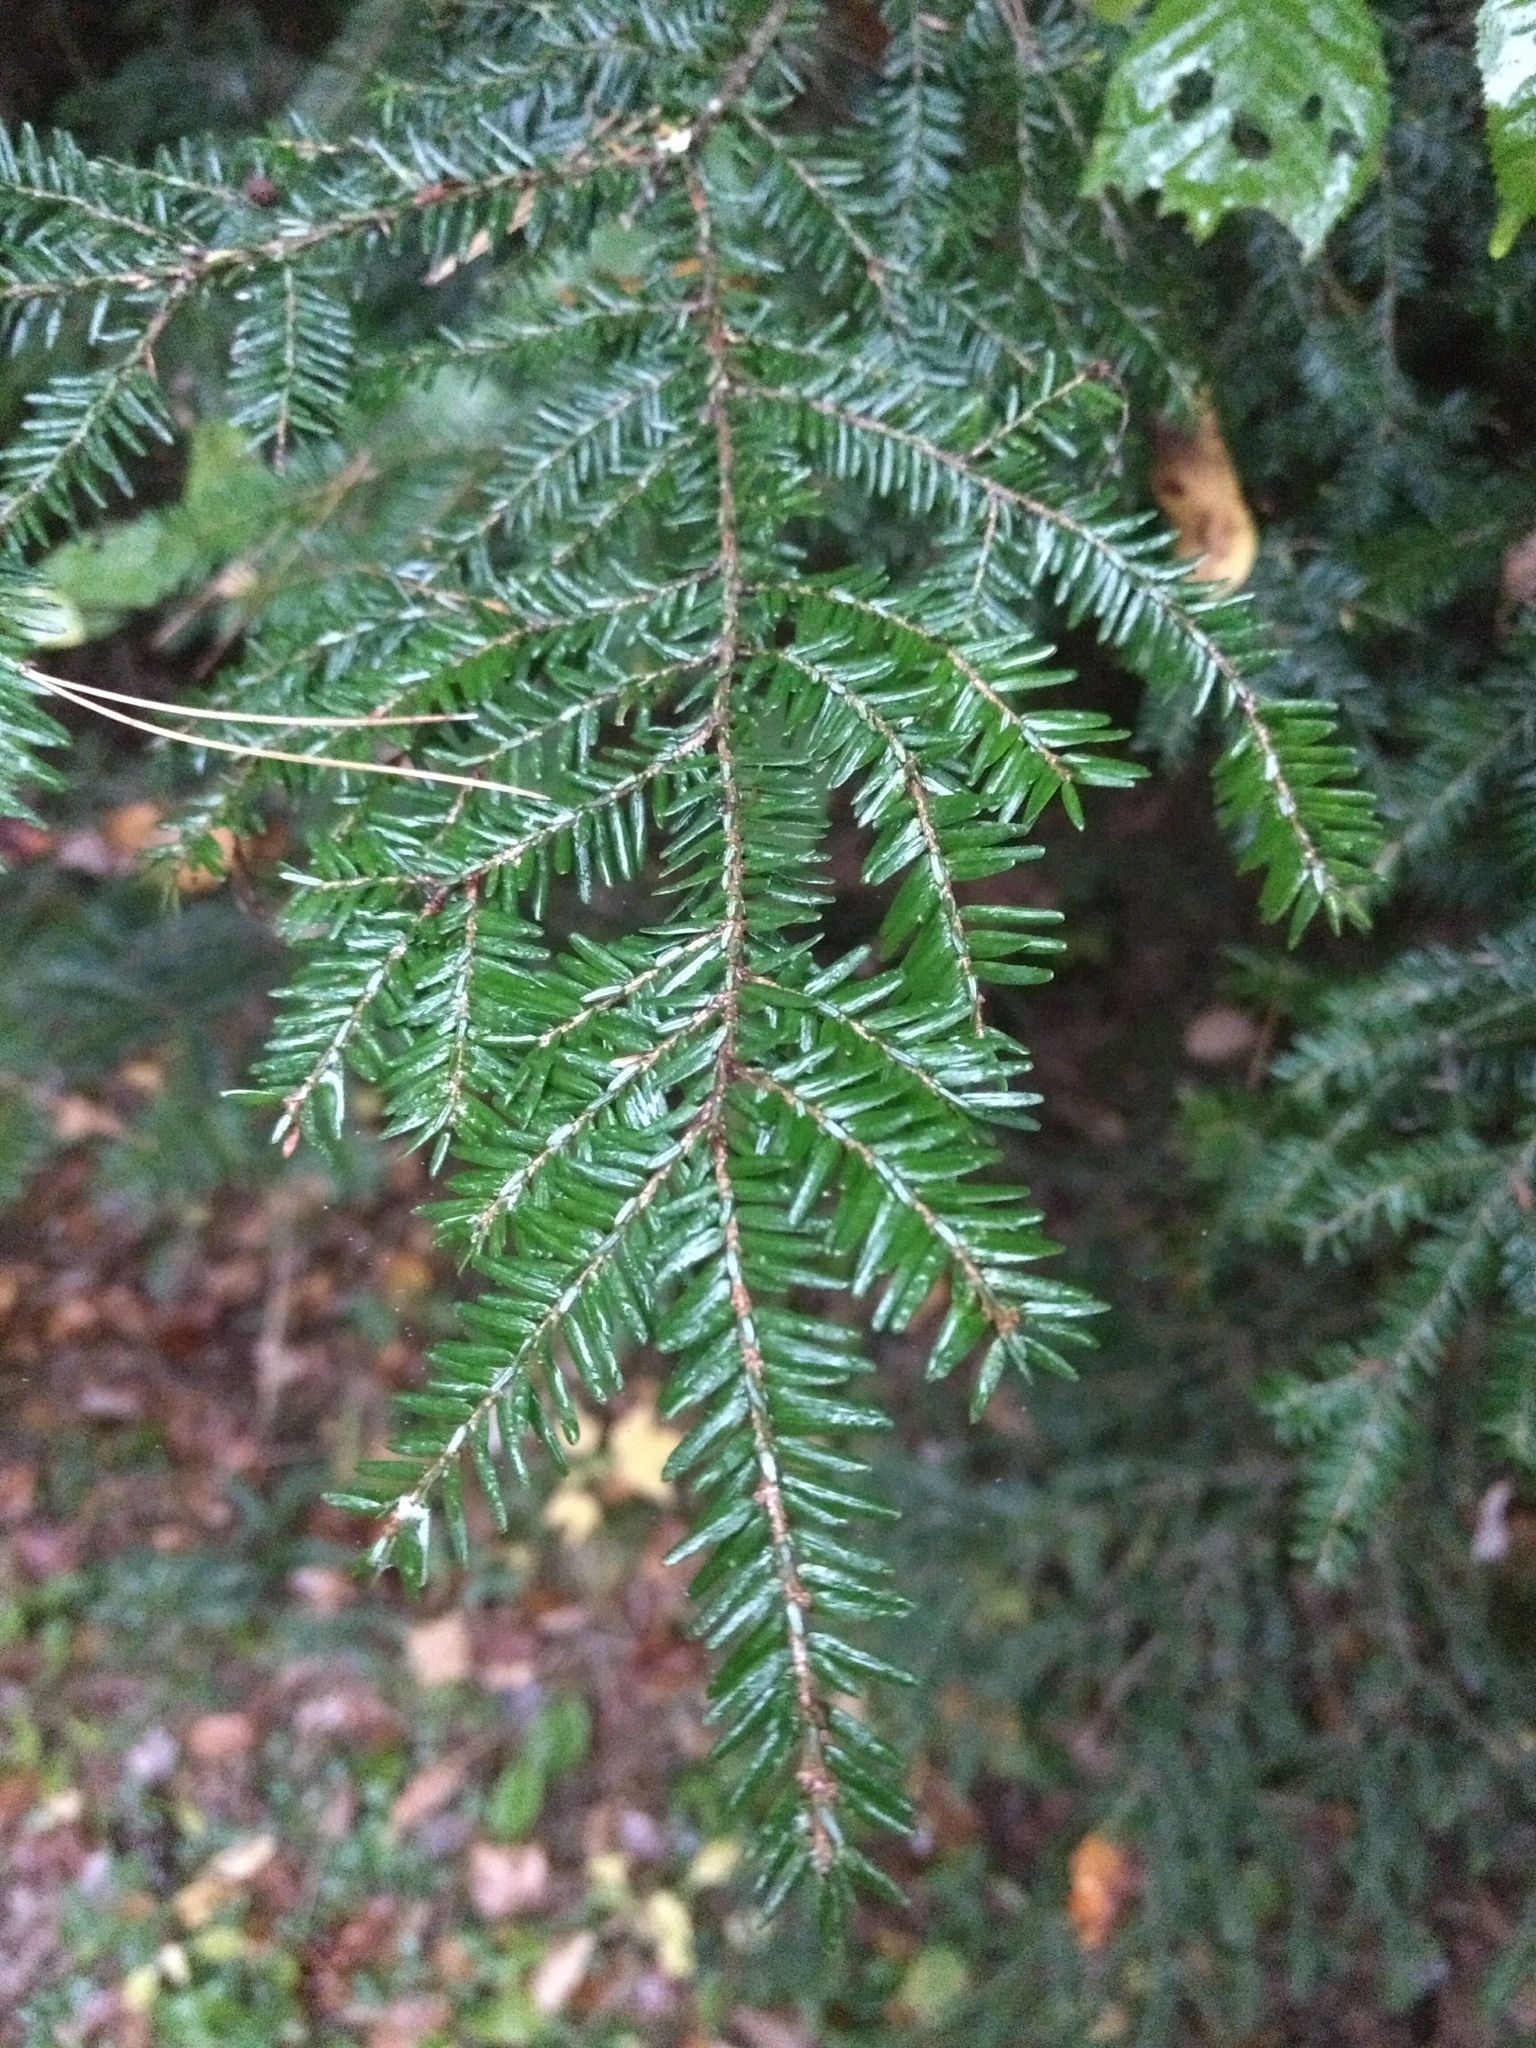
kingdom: Plantae
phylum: Tracheophyta
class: Pinopsida
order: Pinales
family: Pinaceae
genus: Tsuga
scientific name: Tsuga canadensis
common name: Eastern hemlock
